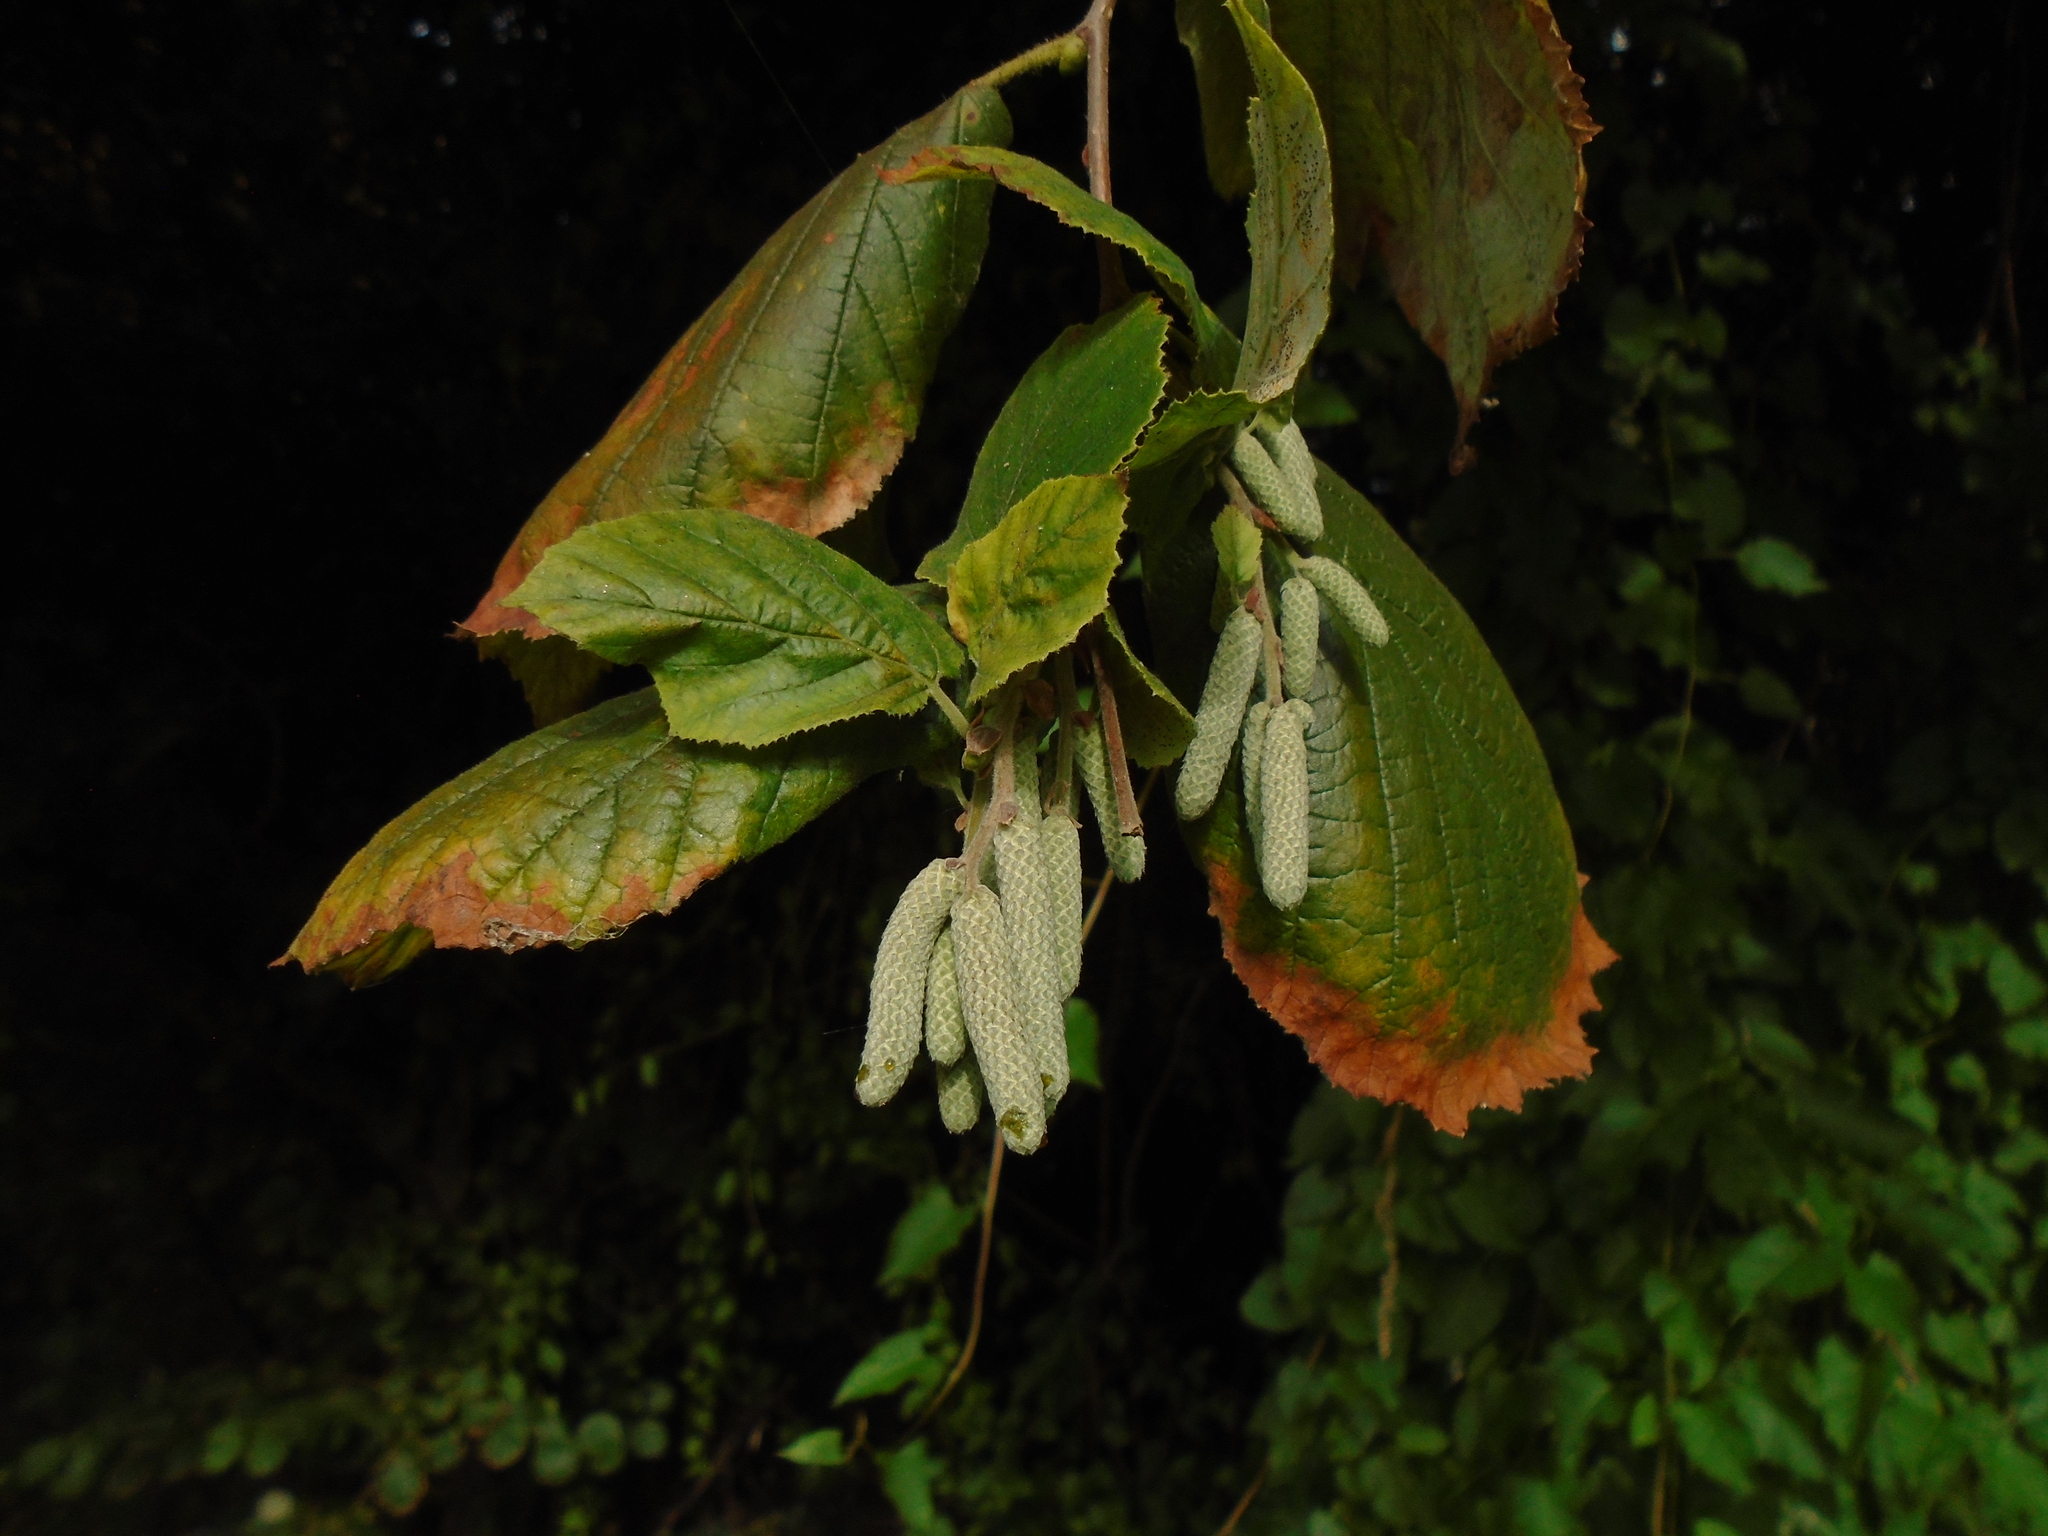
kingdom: Plantae
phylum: Tracheophyta
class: Magnoliopsida
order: Fagales
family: Betulaceae
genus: Corylus
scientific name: Corylus avellana
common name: European hazel
